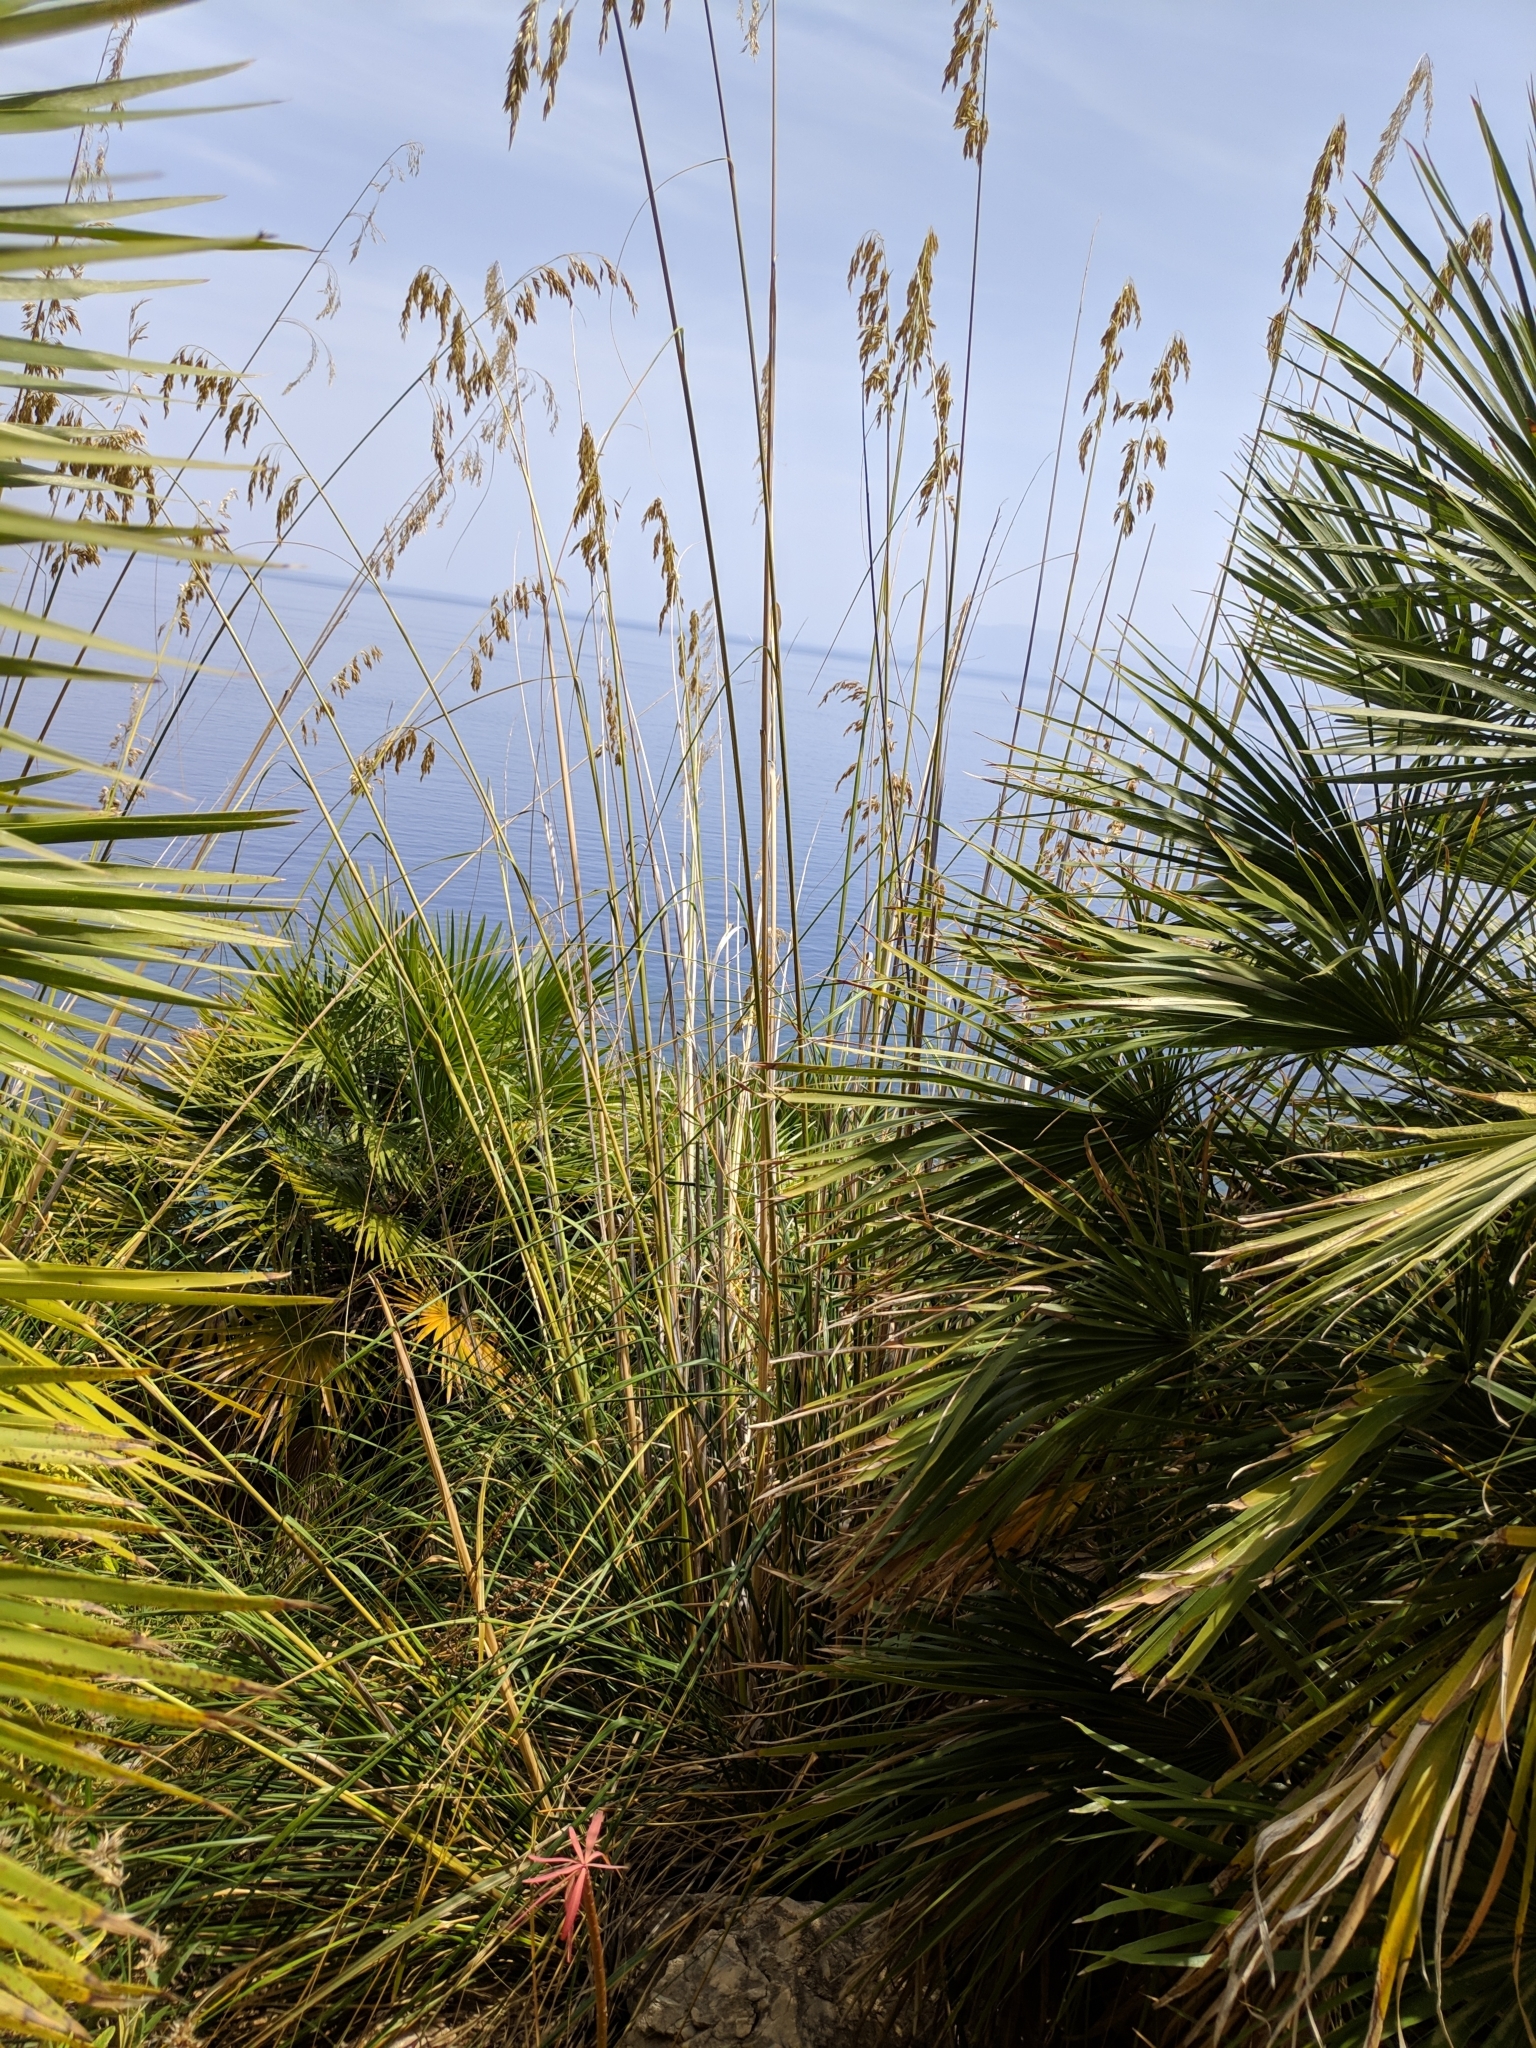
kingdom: Plantae
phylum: Tracheophyta
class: Liliopsida
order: Poales
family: Poaceae
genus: Ampelodesmos
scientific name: Ampelodesmos mauritanicus
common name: Mauritanian grass
